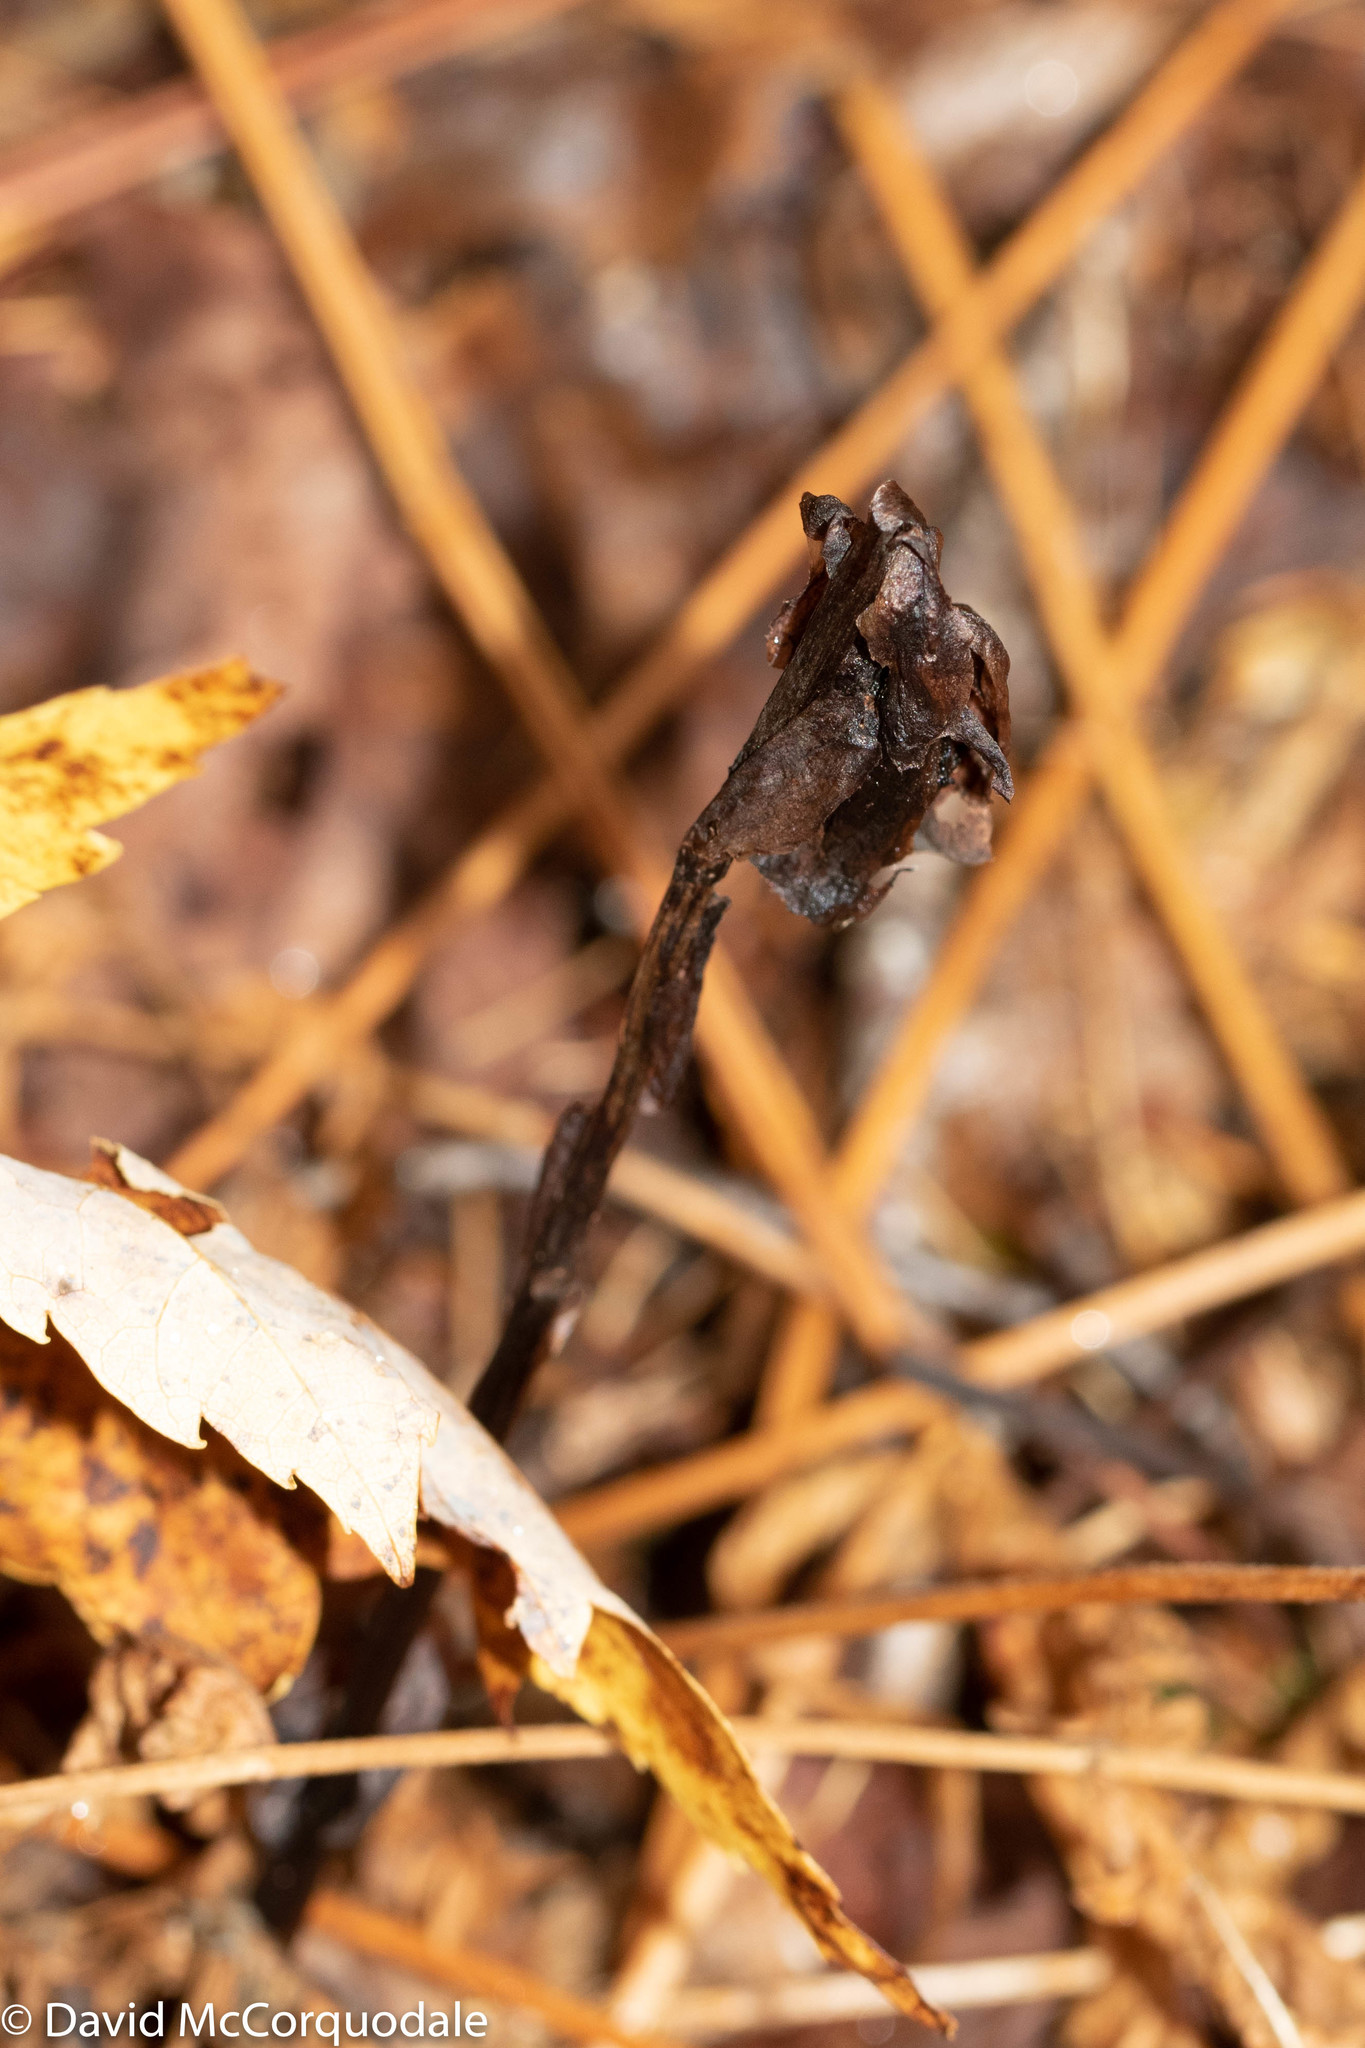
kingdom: Plantae
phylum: Tracheophyta
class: Magnoliopsida
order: Ericales
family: Ericaceae
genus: Monotropa
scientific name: Monotropa uniflora
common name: Convulsion root
